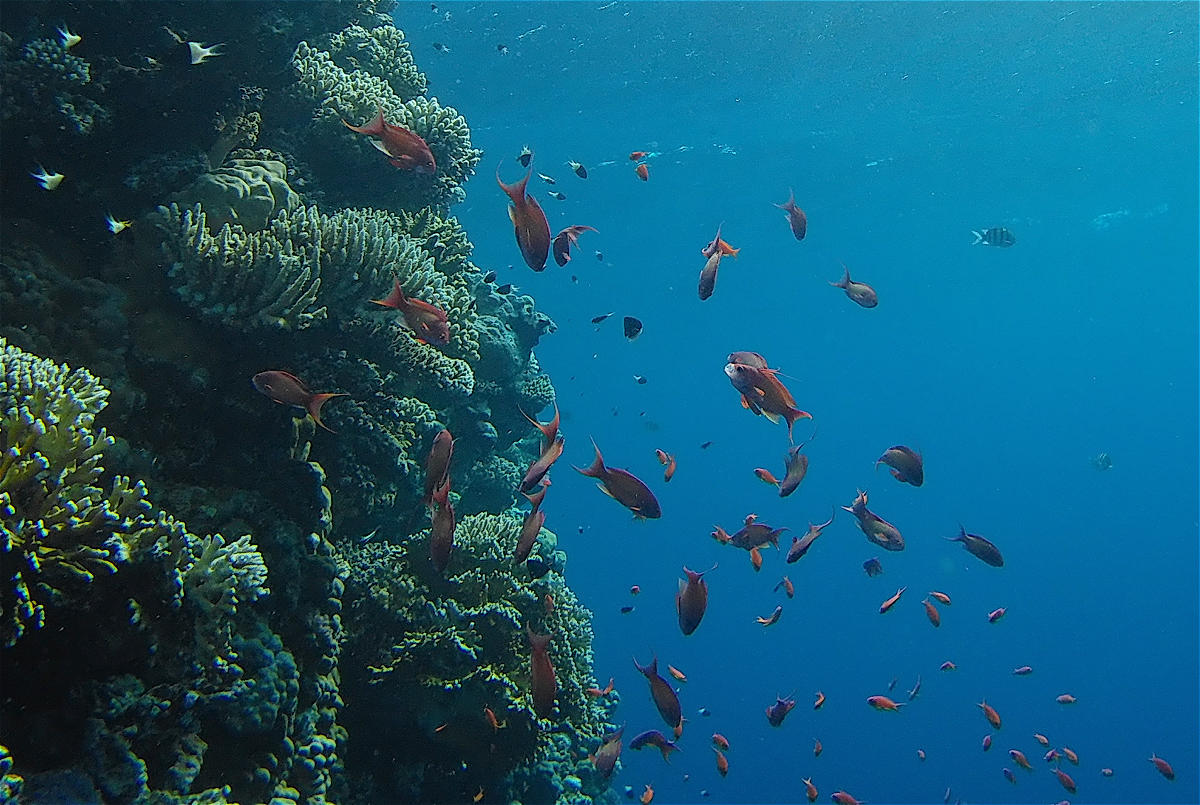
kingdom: Animalia
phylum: Chordata
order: Perciformes
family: Serranidae
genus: Pseudanthias
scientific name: Pseudanthias squamipinnis
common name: Scalefin anthias
